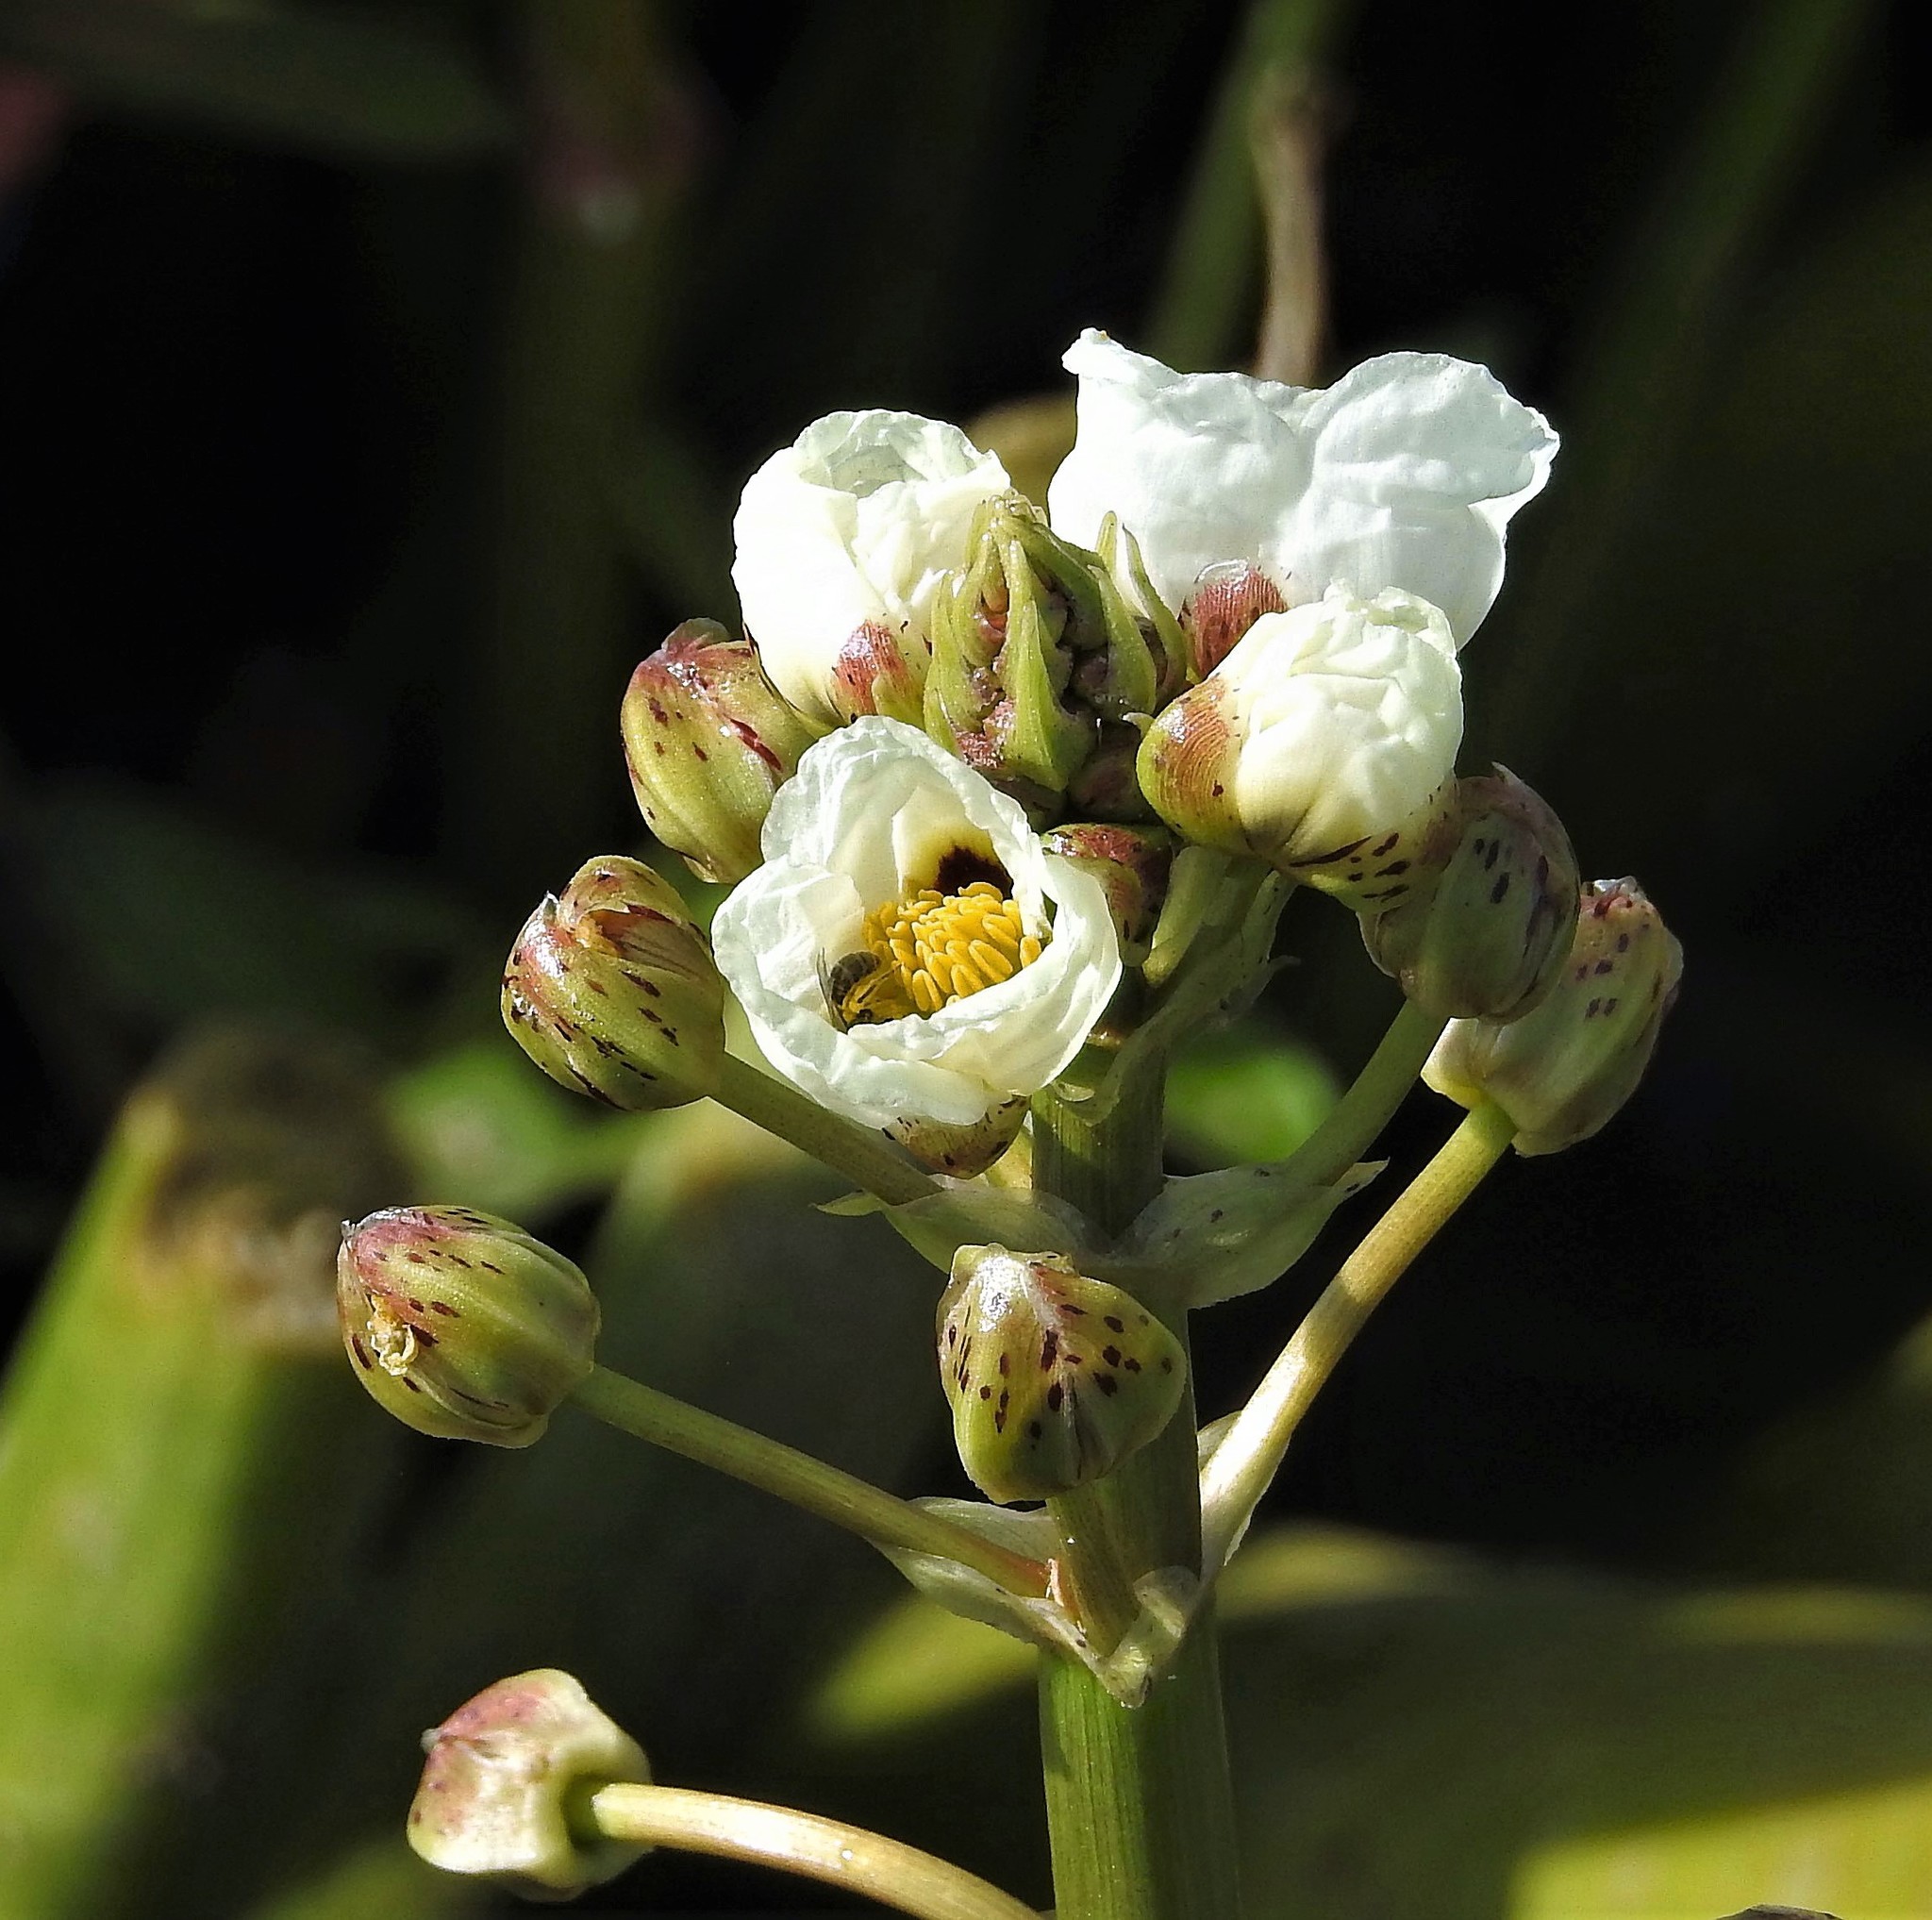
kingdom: Plantae
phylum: Tracheophyta
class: Liliopsida
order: Alismatales
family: Alismataceae
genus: Sagittaria
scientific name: Sagittaria montevidensis
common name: Giant arrowhead
